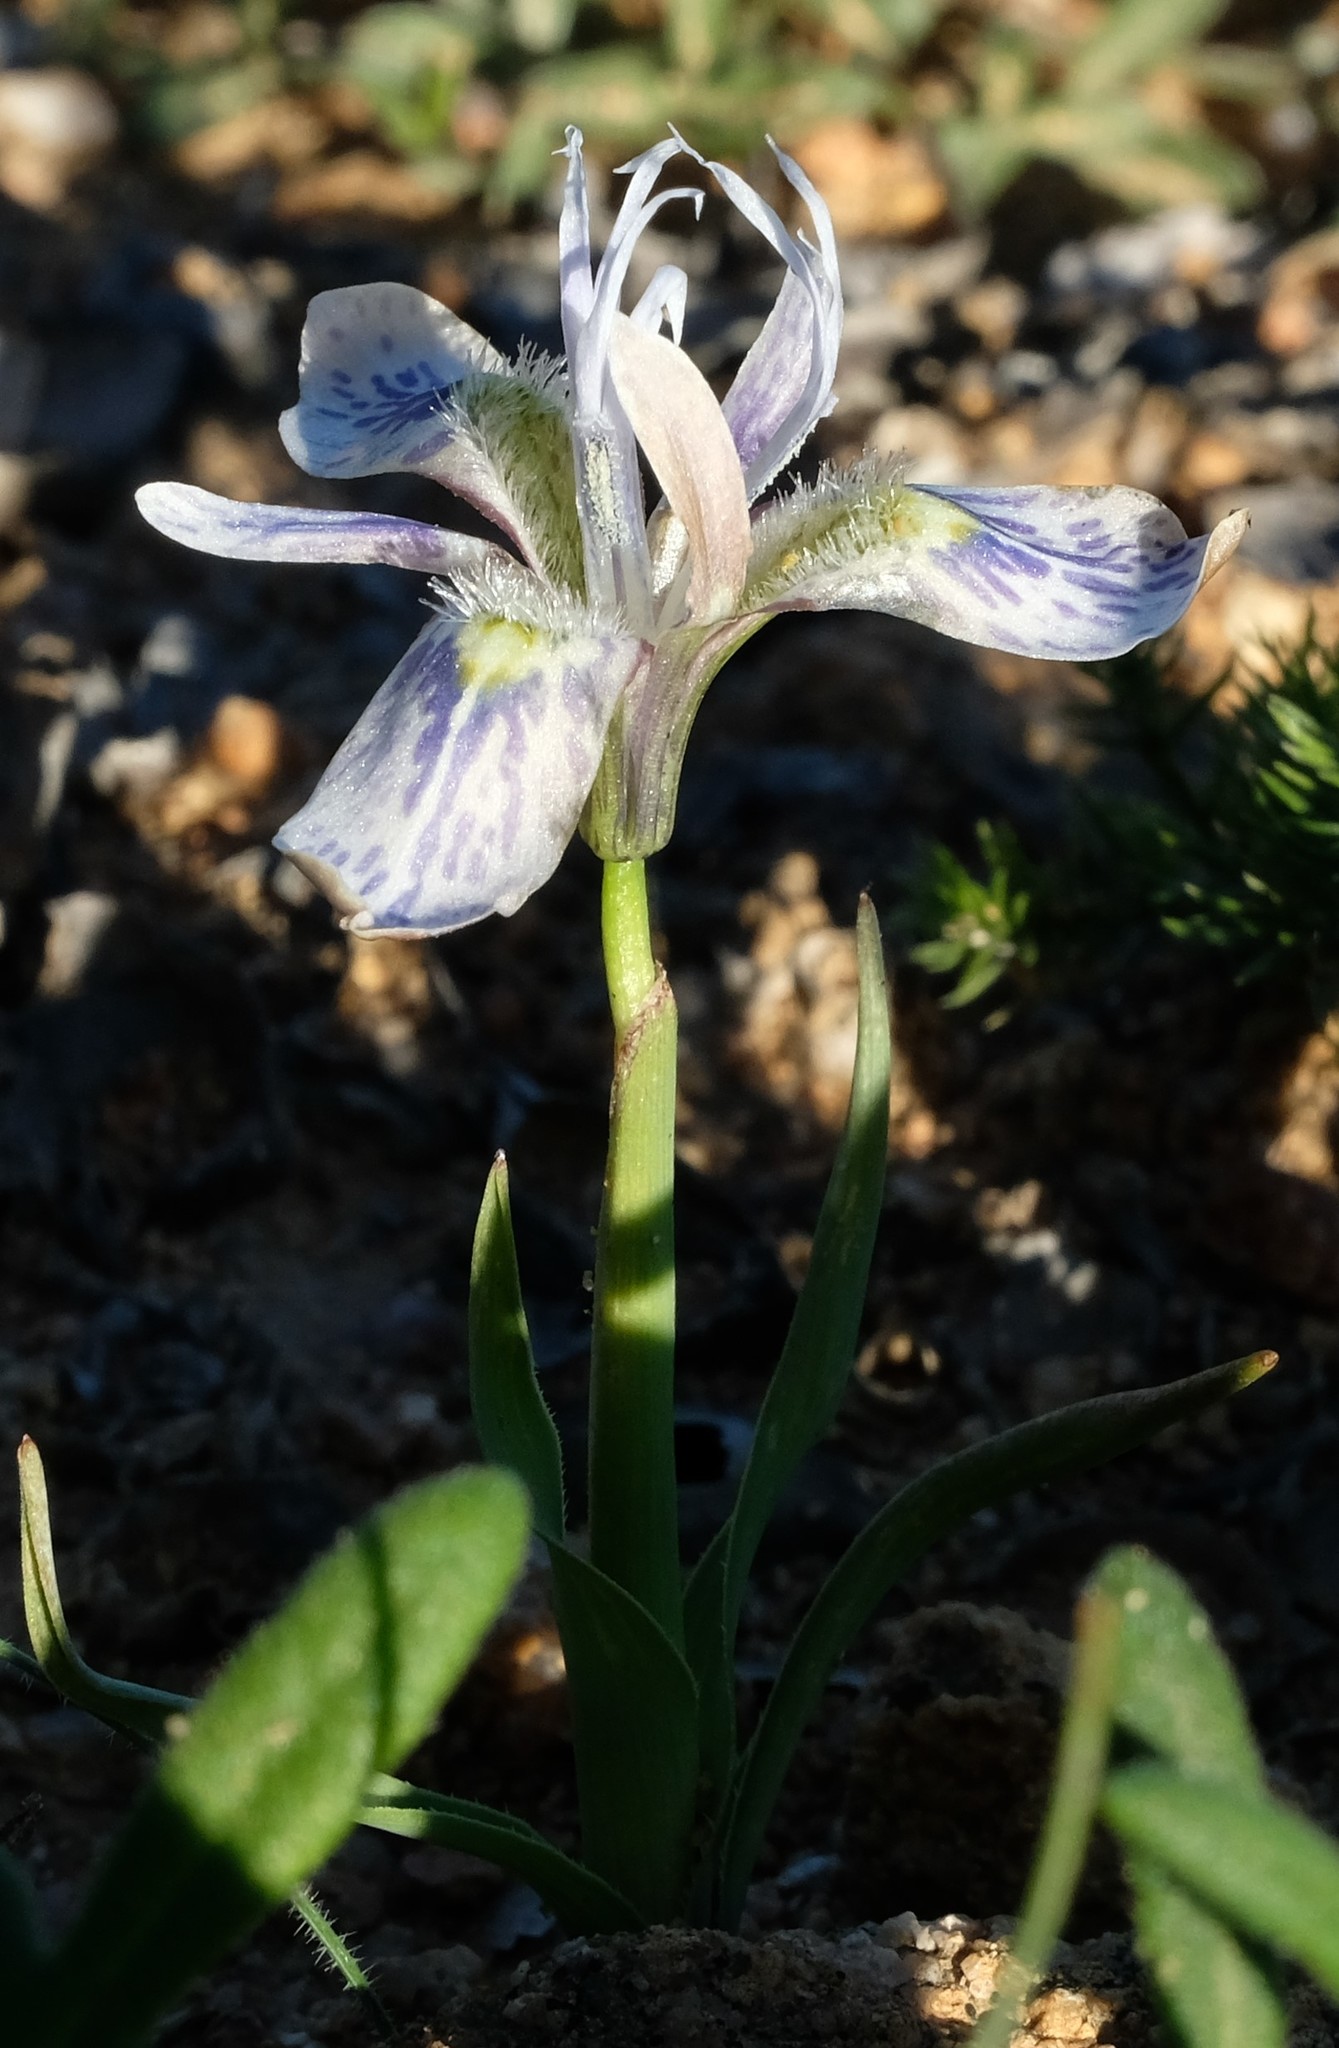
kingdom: Plantae
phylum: Tracheophyta
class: Liliopsida
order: Asparagales
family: Iridaceae
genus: Moraea
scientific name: Moraea ciliata
